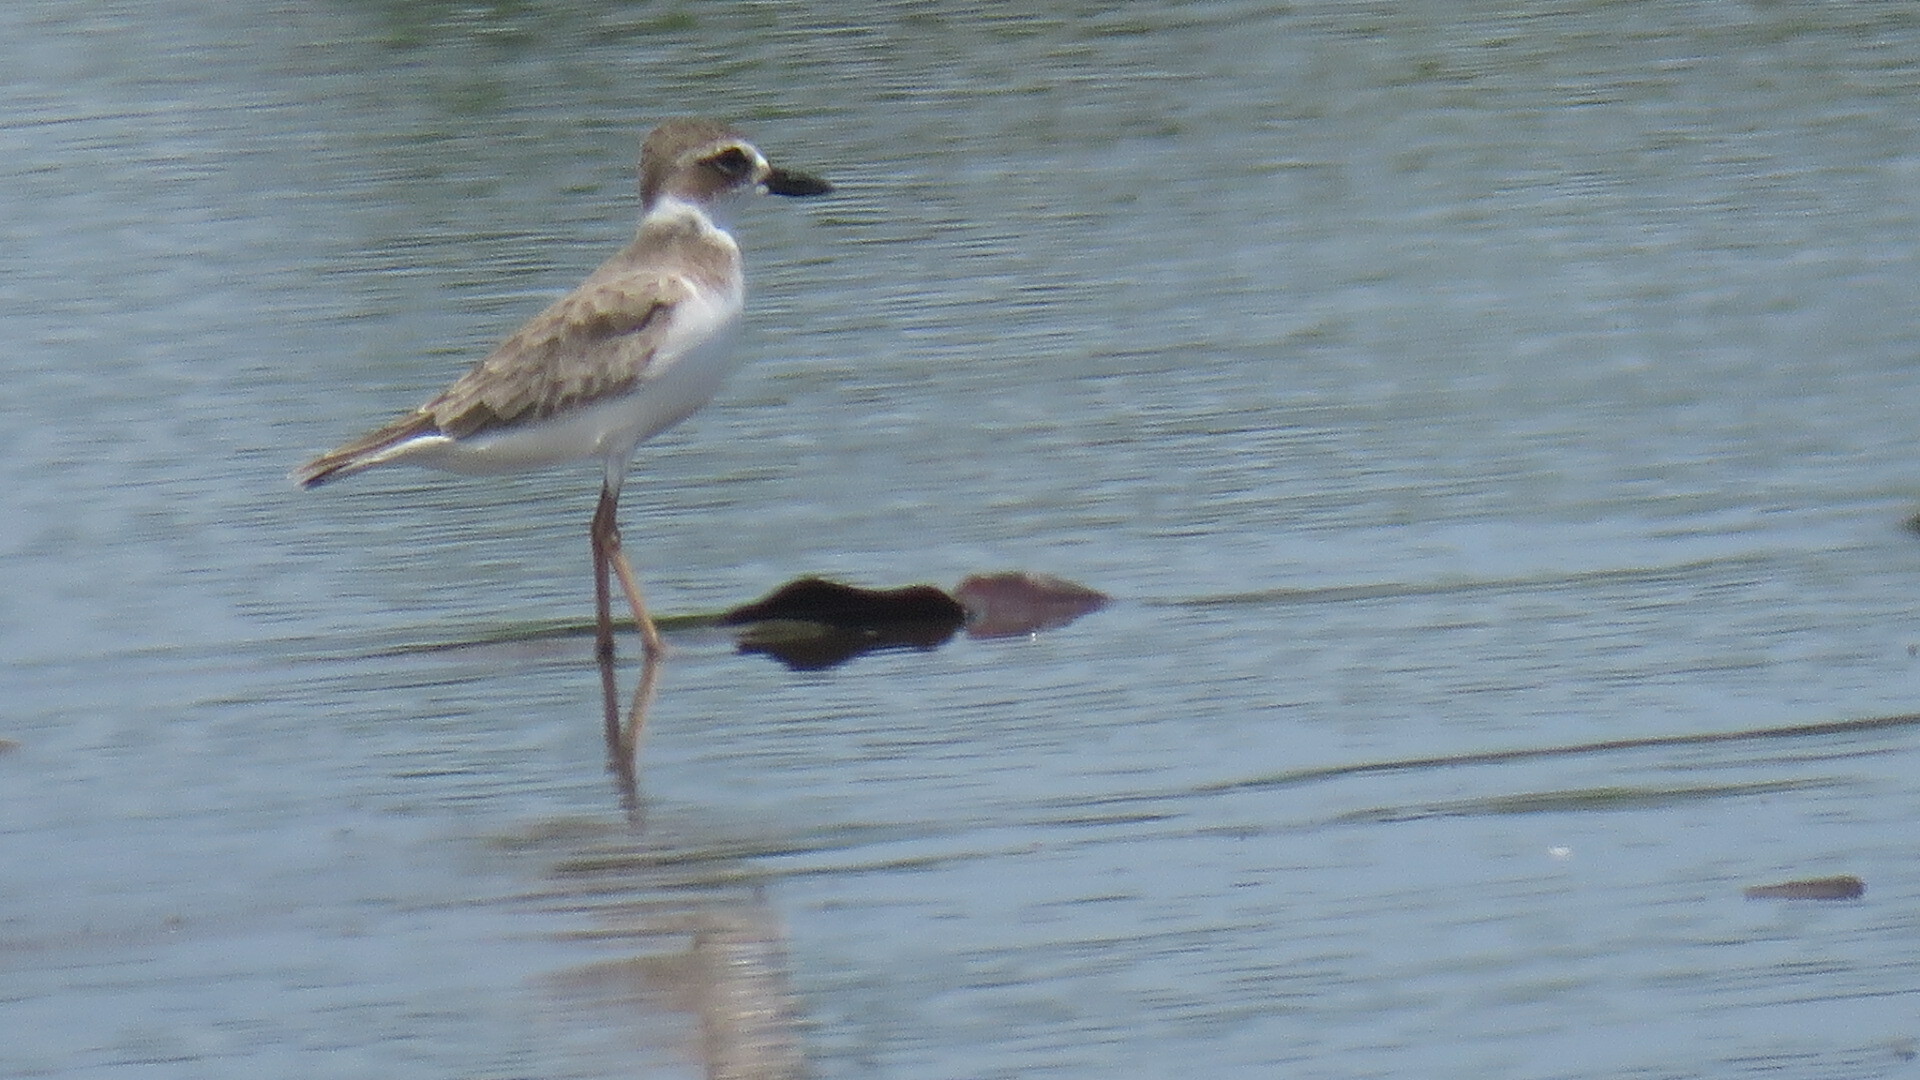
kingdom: Animalia
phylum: Chordata
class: Aves
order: Charadriiformes
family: Charadriidae
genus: Anarhynchus
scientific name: Anarhynchus
